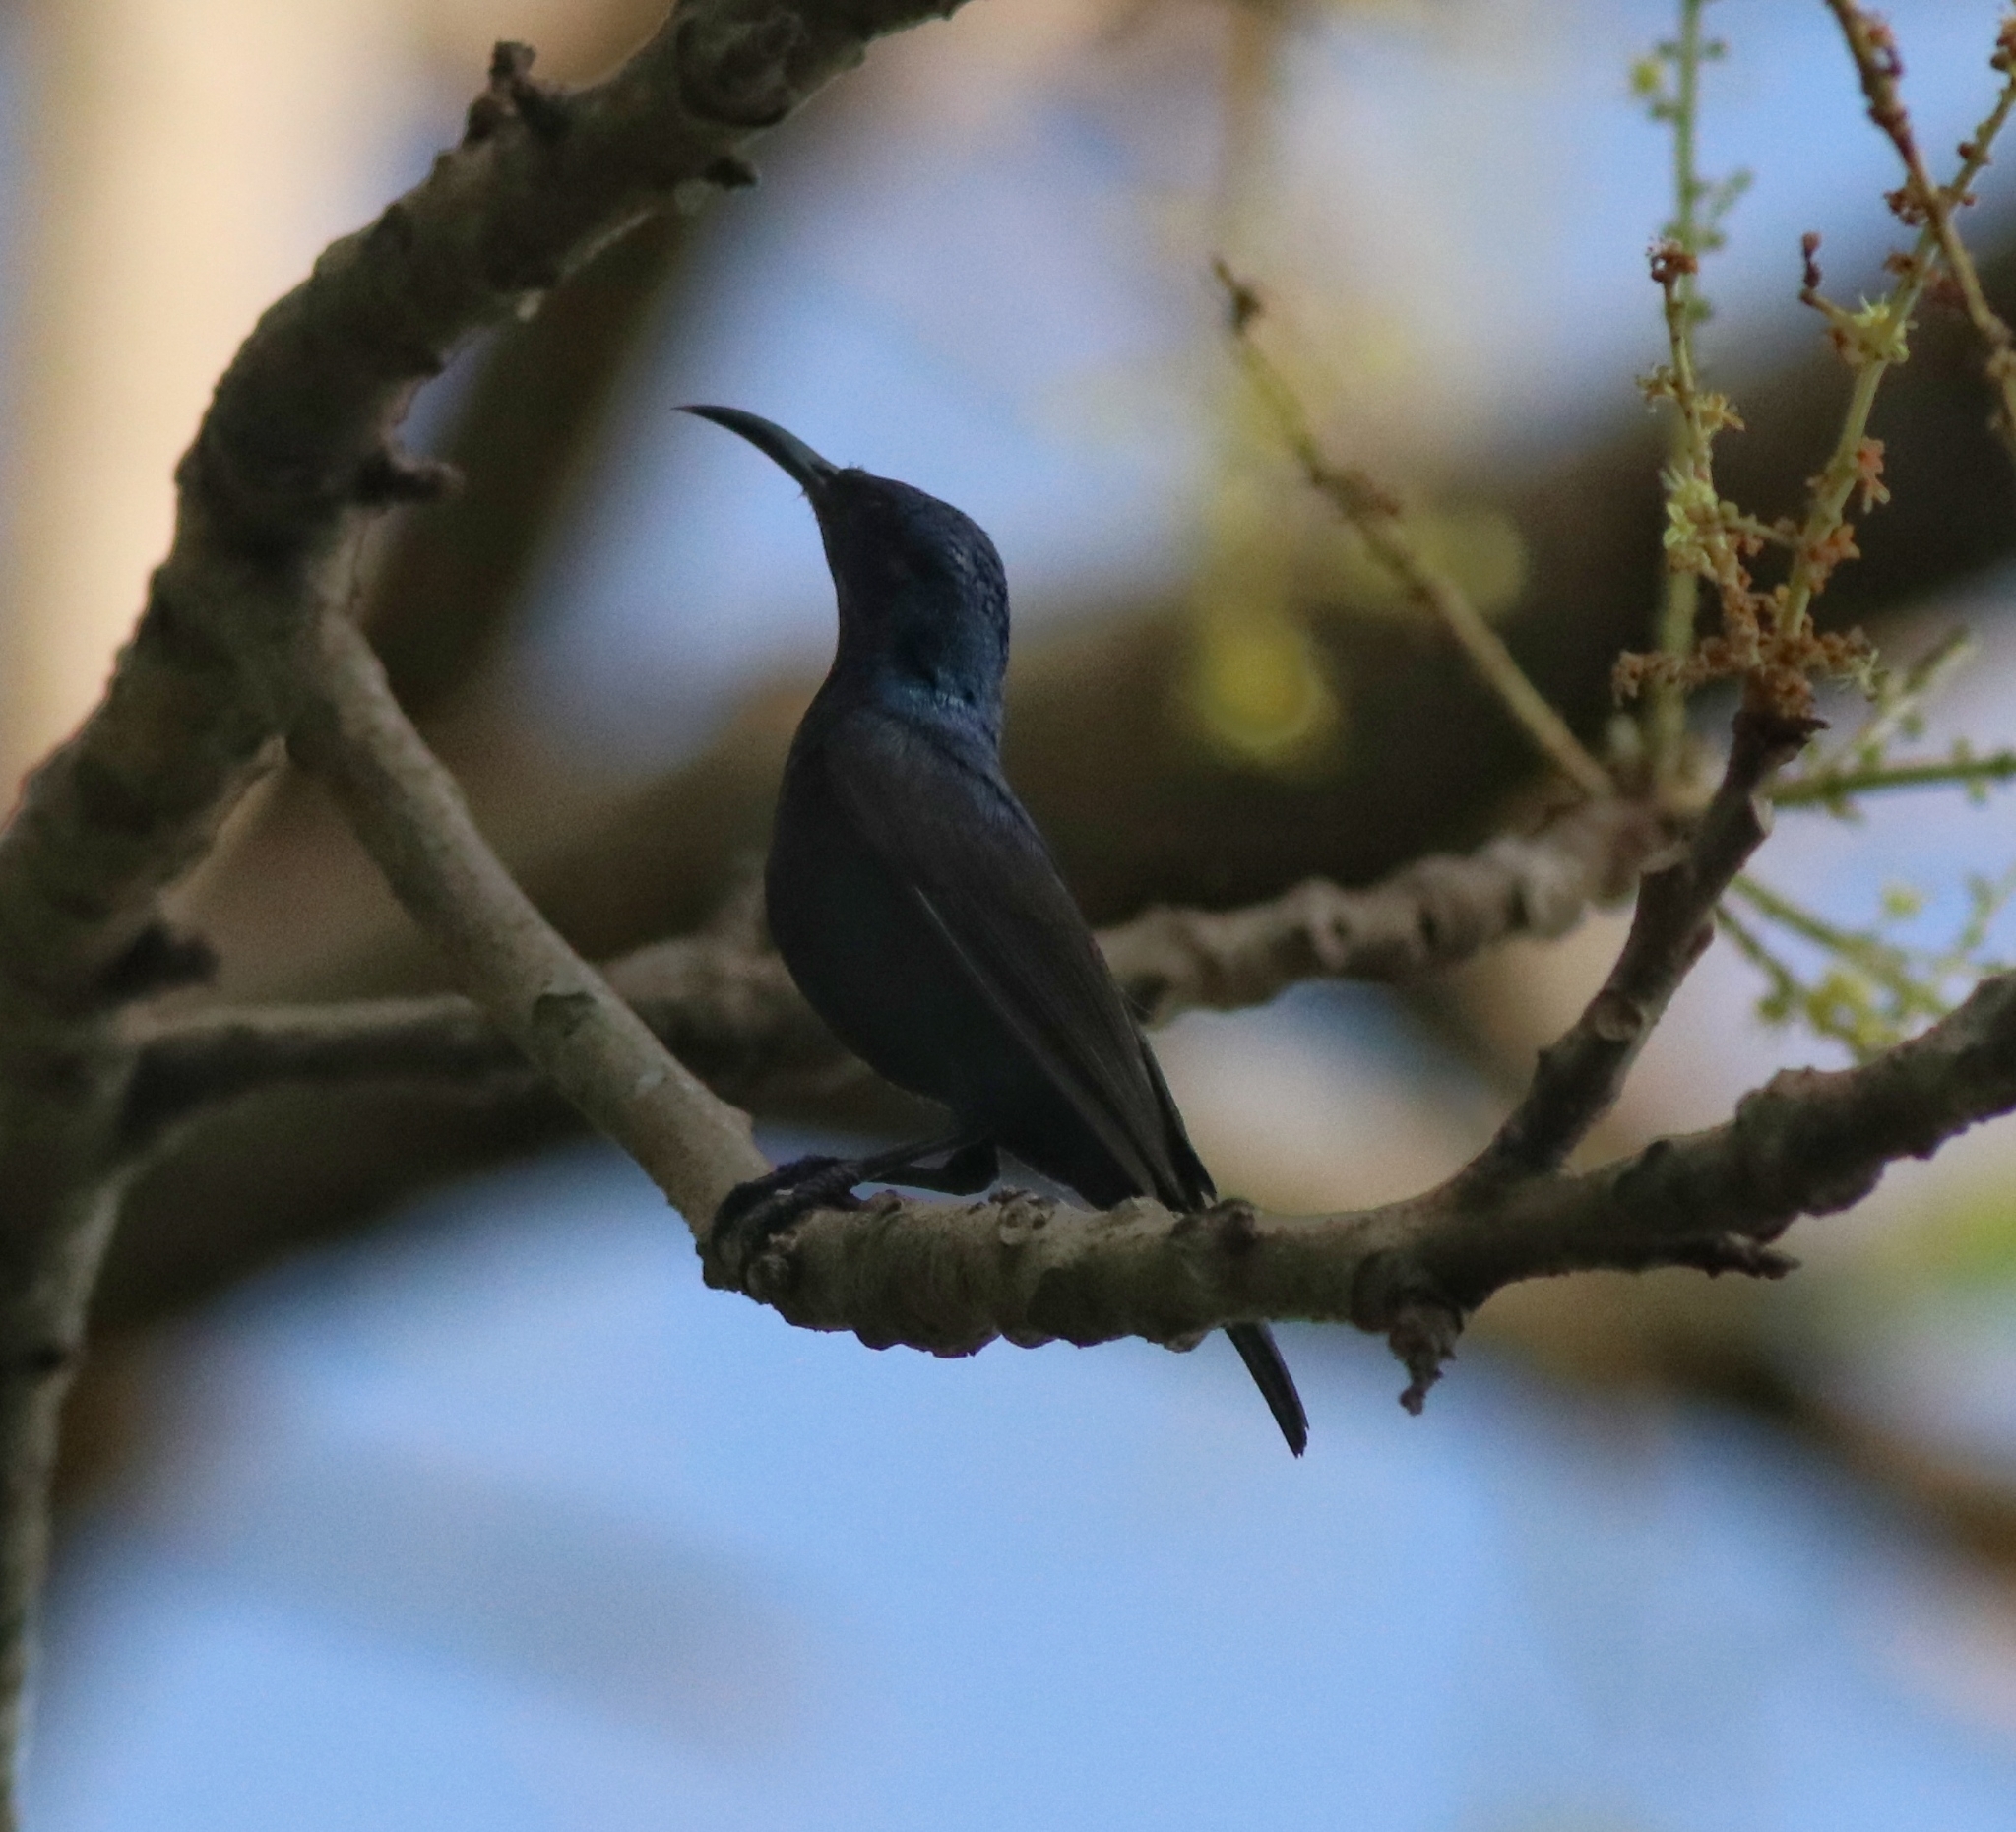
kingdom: Animalia
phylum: Chordata
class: Aves
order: Passeriformes
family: Nectariniidae
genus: Cinnyris
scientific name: Cinnyris asiaticus
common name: Purple sunbird
